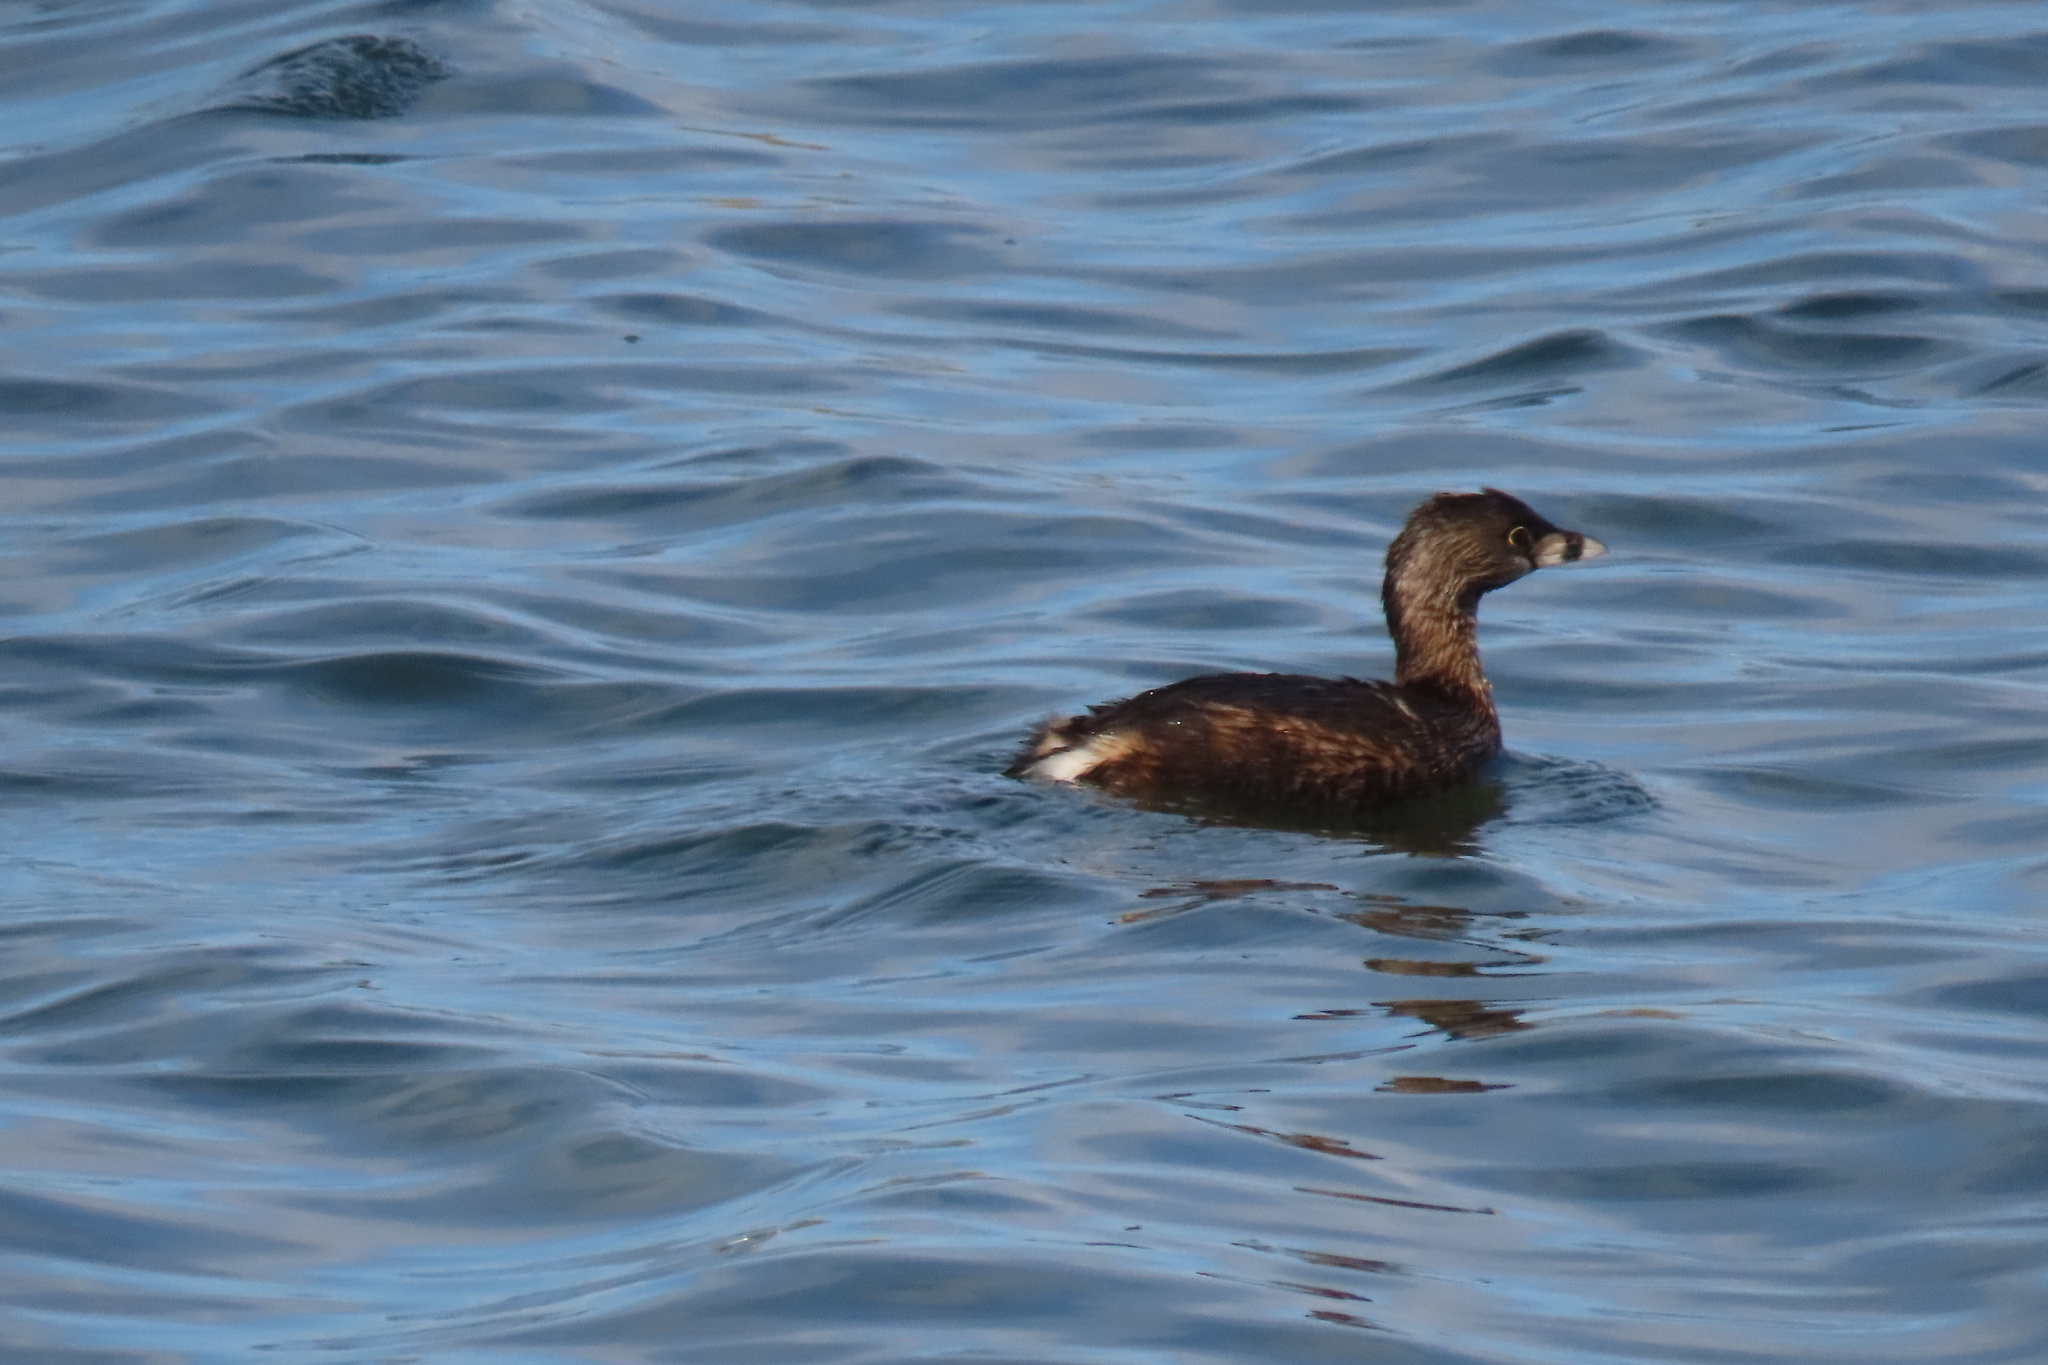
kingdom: Animalia
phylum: Chordata
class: Aves
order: Podicipediformes
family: Podicipedidae
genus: Podilymbus
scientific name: Podilymbus podiceps
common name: Pied-billed grebe
